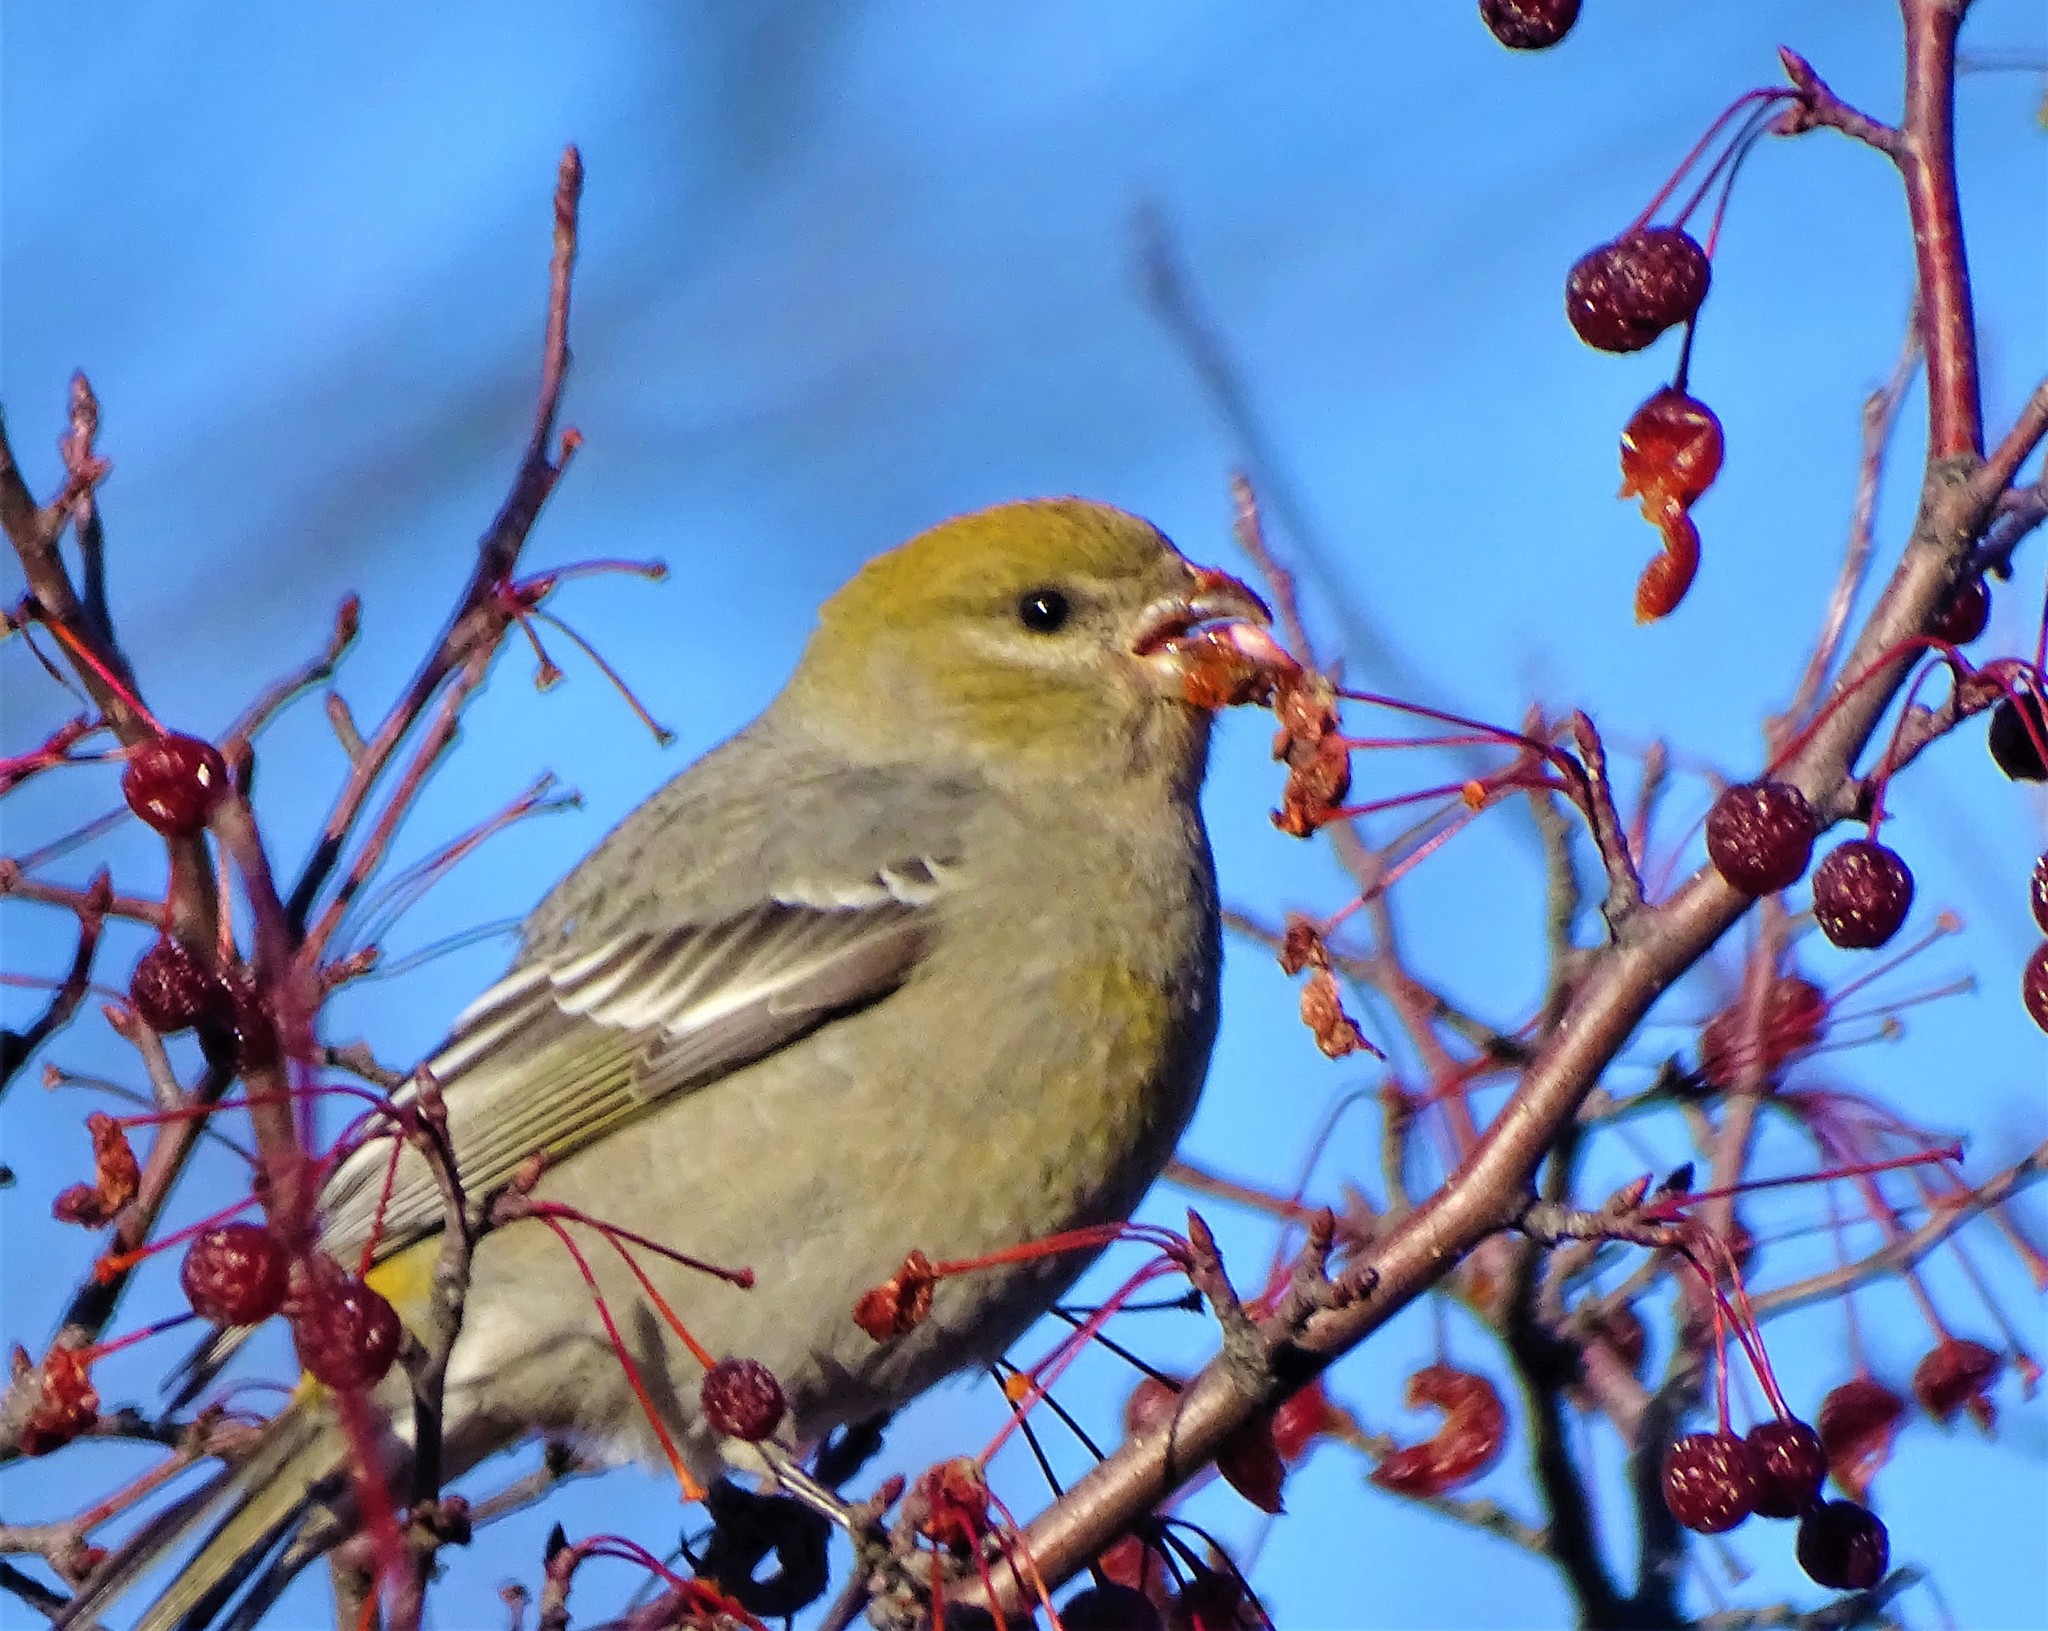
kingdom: Animalia
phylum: Chordata
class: Aves
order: Passeriformes
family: Fringillidae
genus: Pinicola
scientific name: Pinicola enucleator
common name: Pine grosbeak
